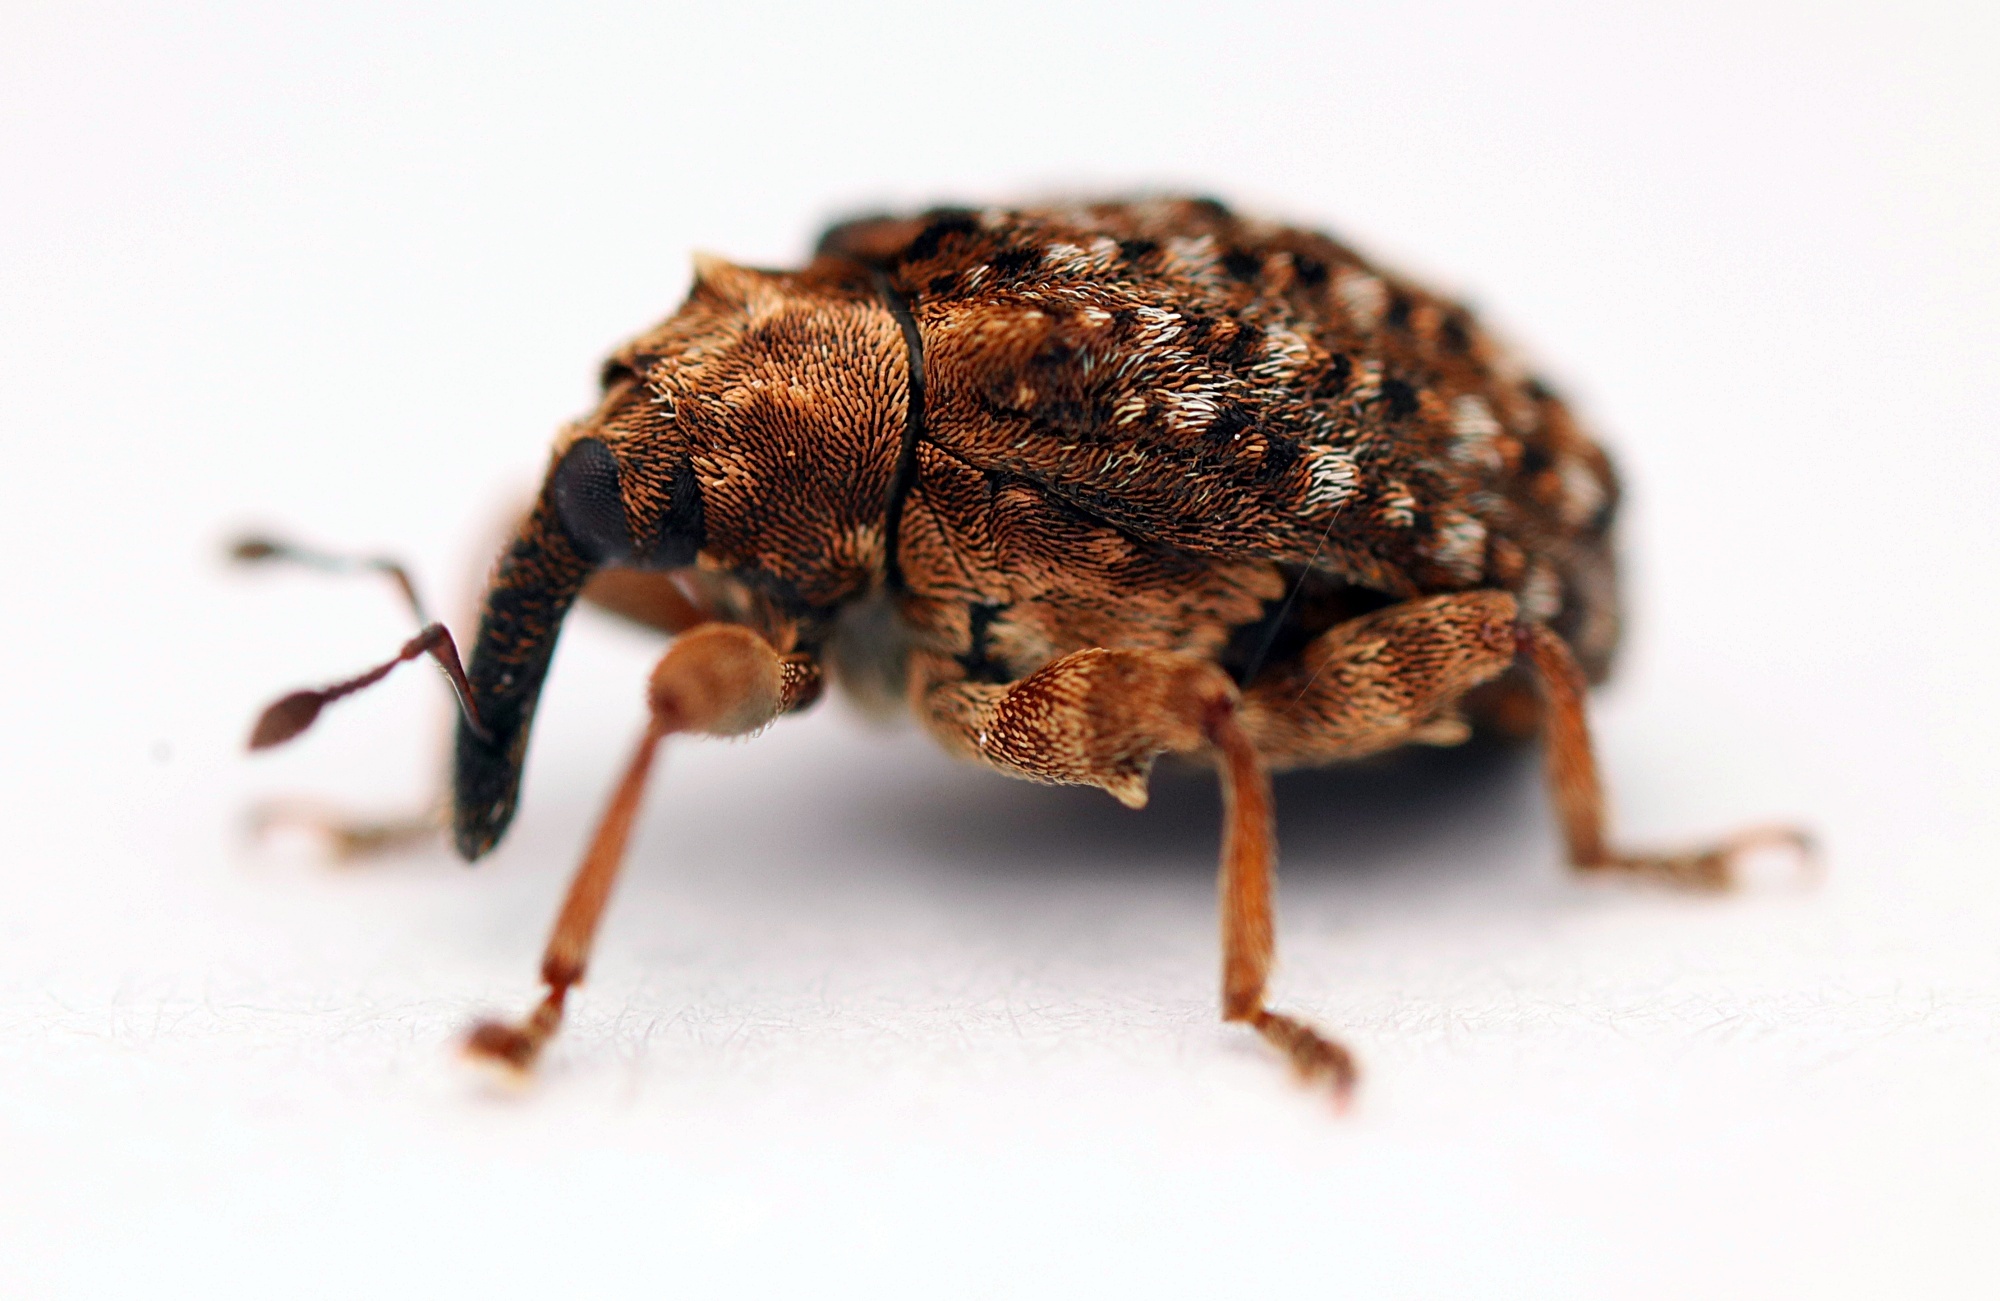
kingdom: Animalia
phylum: Arthropoda
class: Insecta
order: Coleoptera
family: Curculionidae
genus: Cleopus
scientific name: Cleopus japonicus
